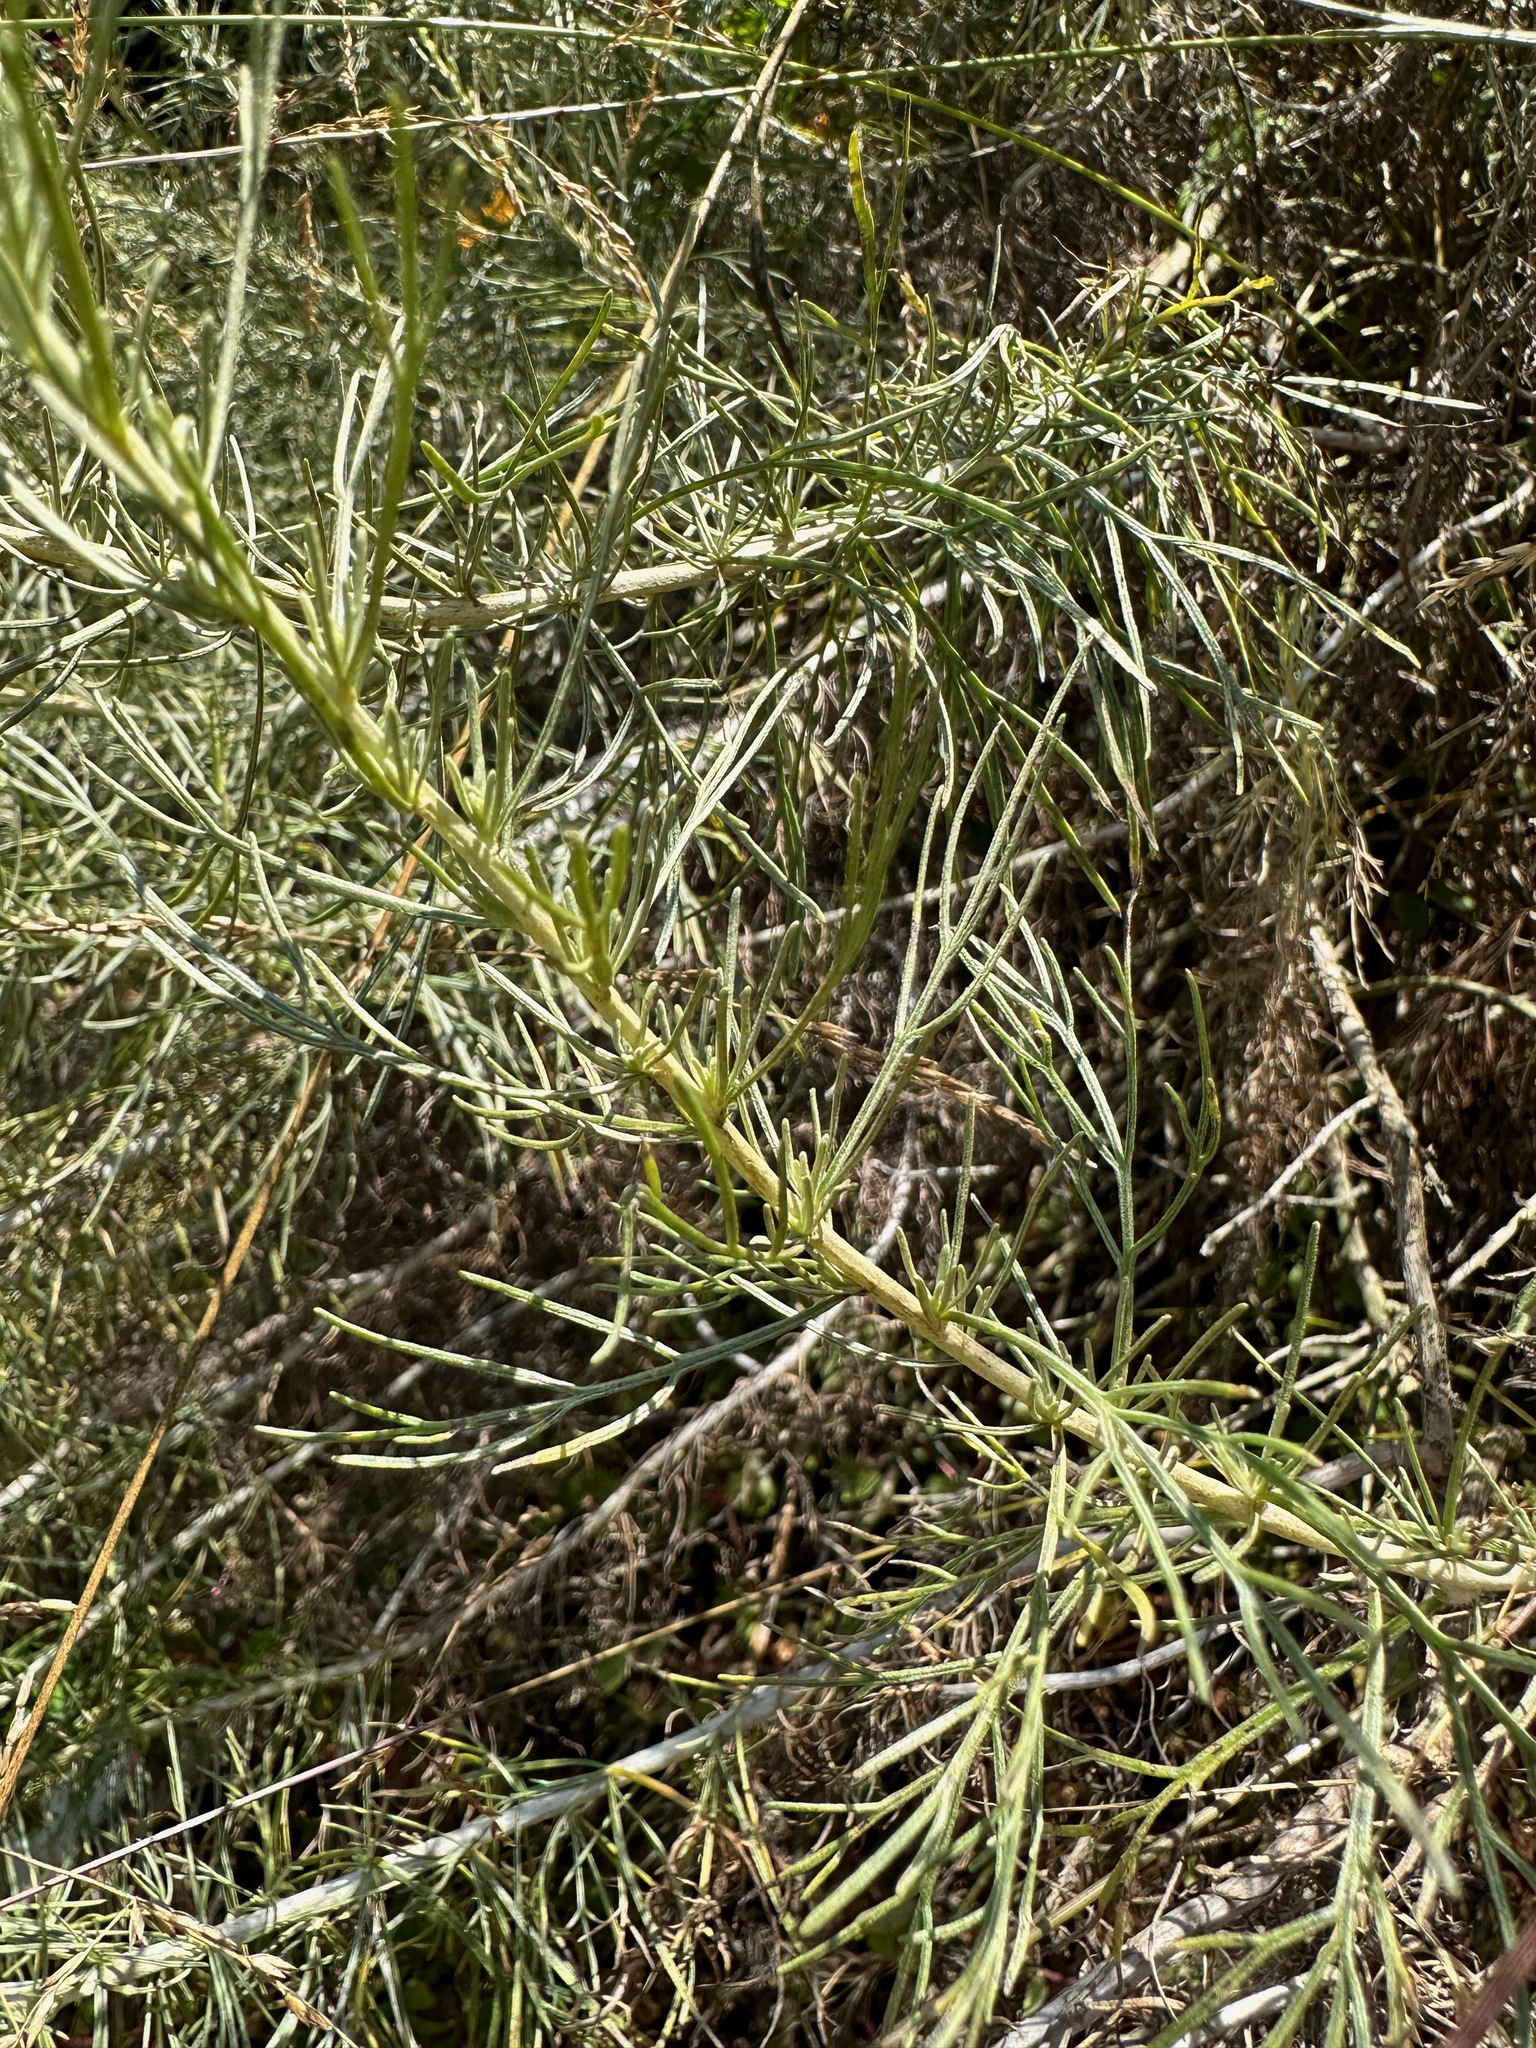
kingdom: Plantae
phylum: Tracheophyta
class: Magnoliopsida
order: Asterales
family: Asteraceae
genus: Artemisia
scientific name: Artemisia californica
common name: California sagebrush
